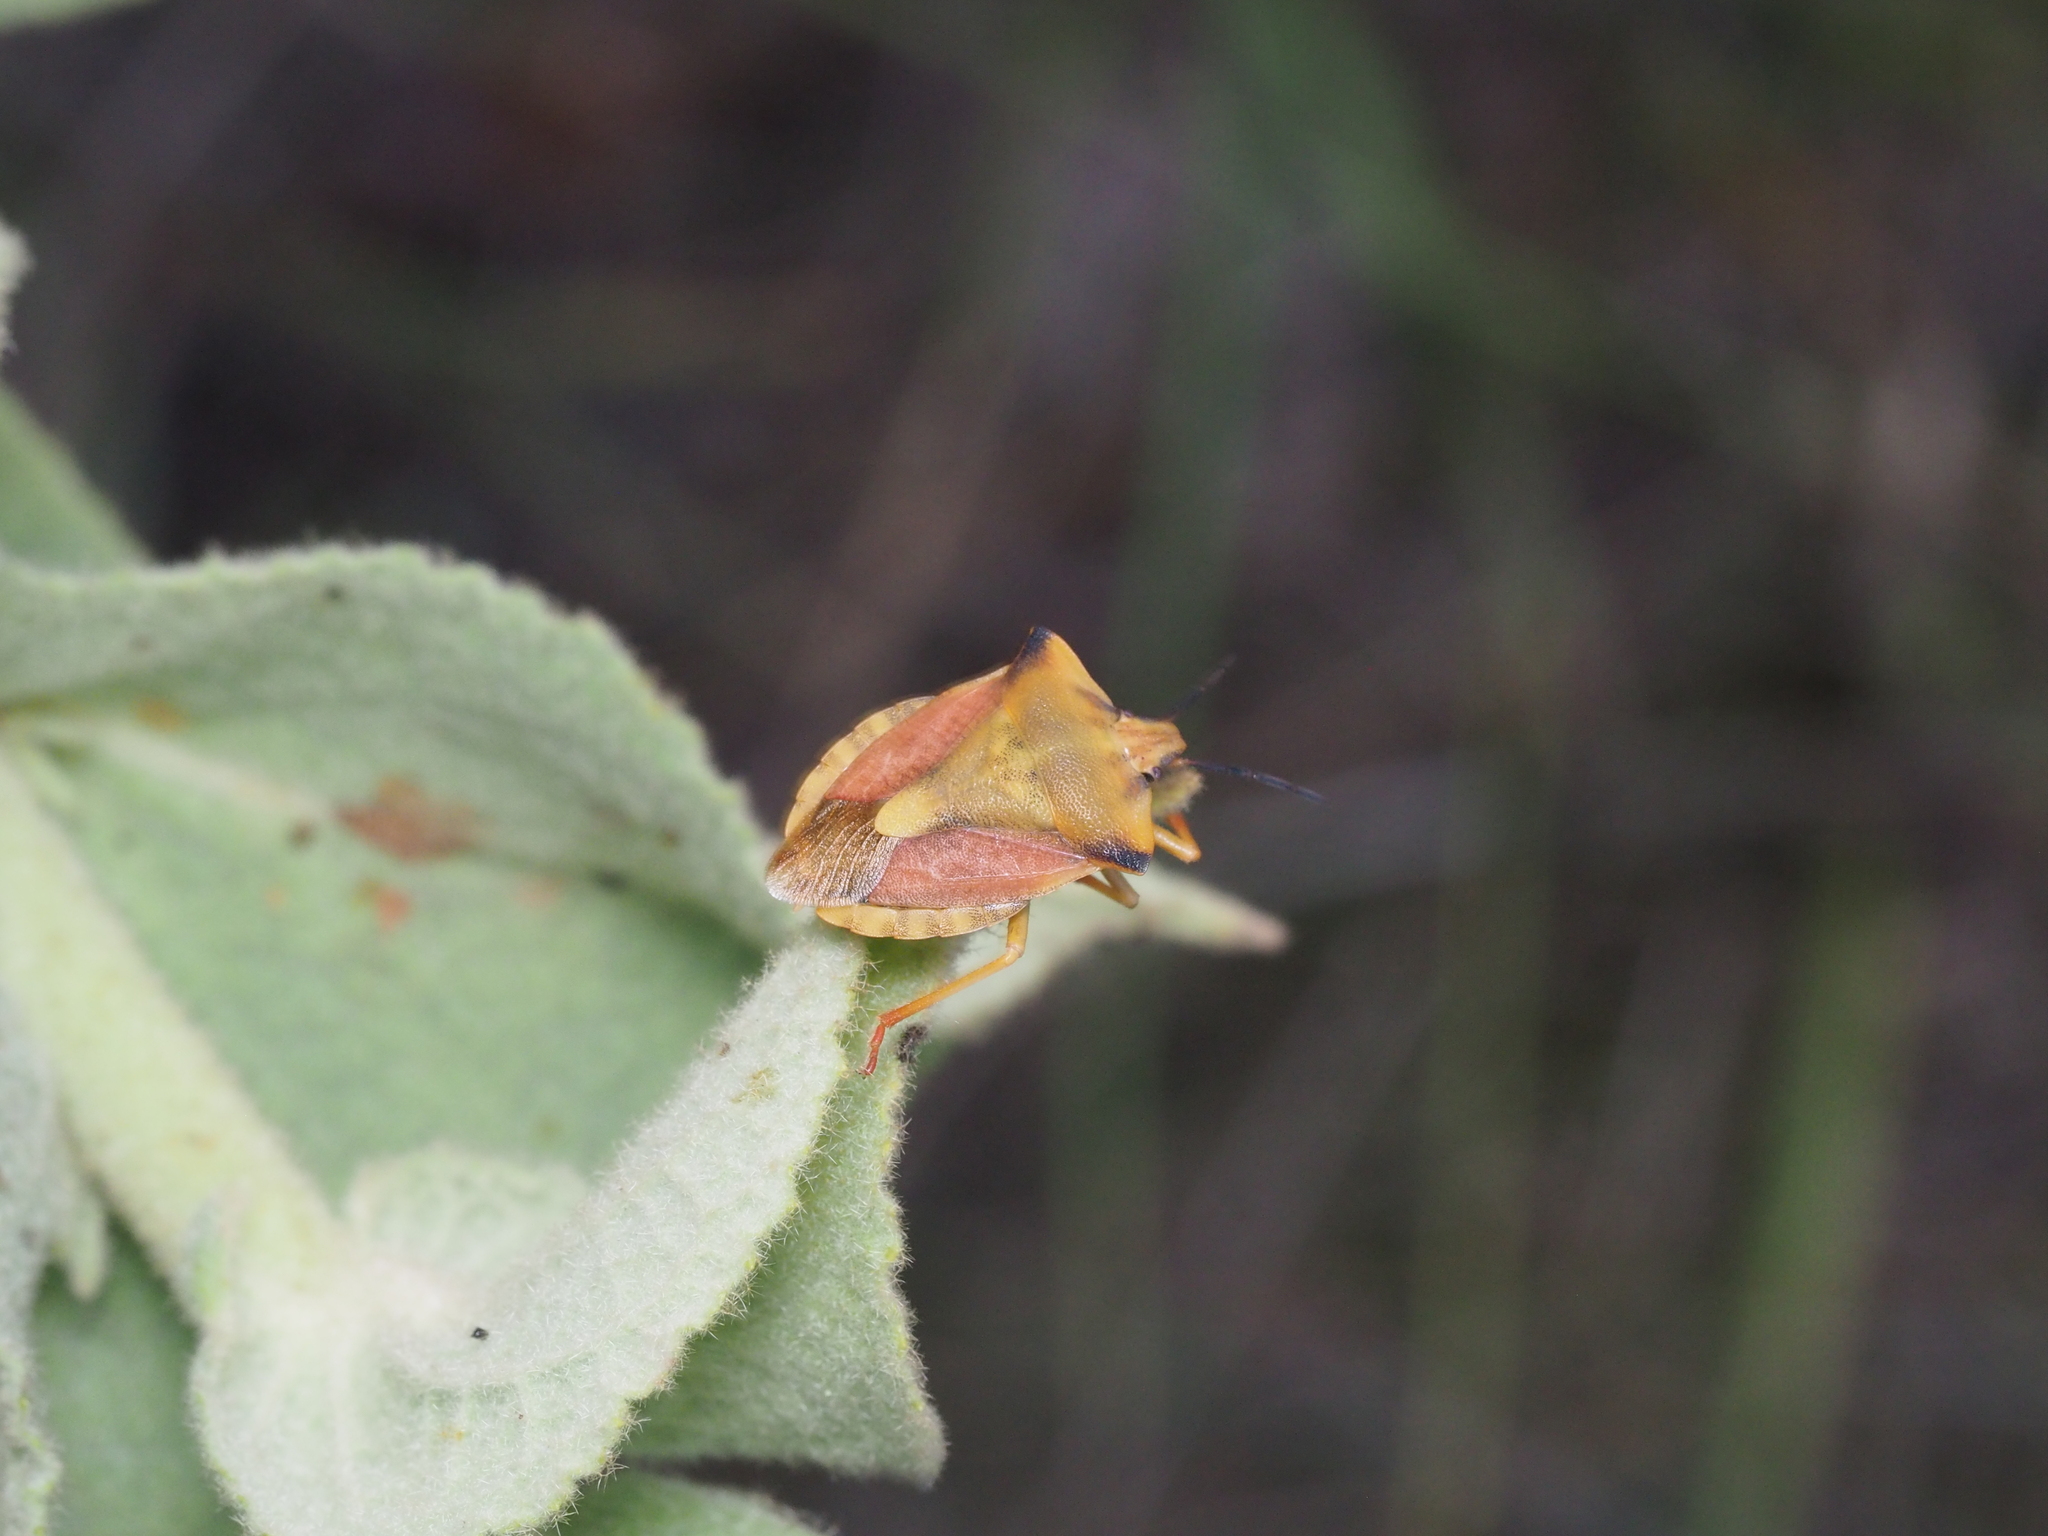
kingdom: Animalia
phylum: Arthropoda
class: Insecta
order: Hemiptera
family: Pentatomidae
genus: Carpocoris
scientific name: Carpocoris fuscispinus
